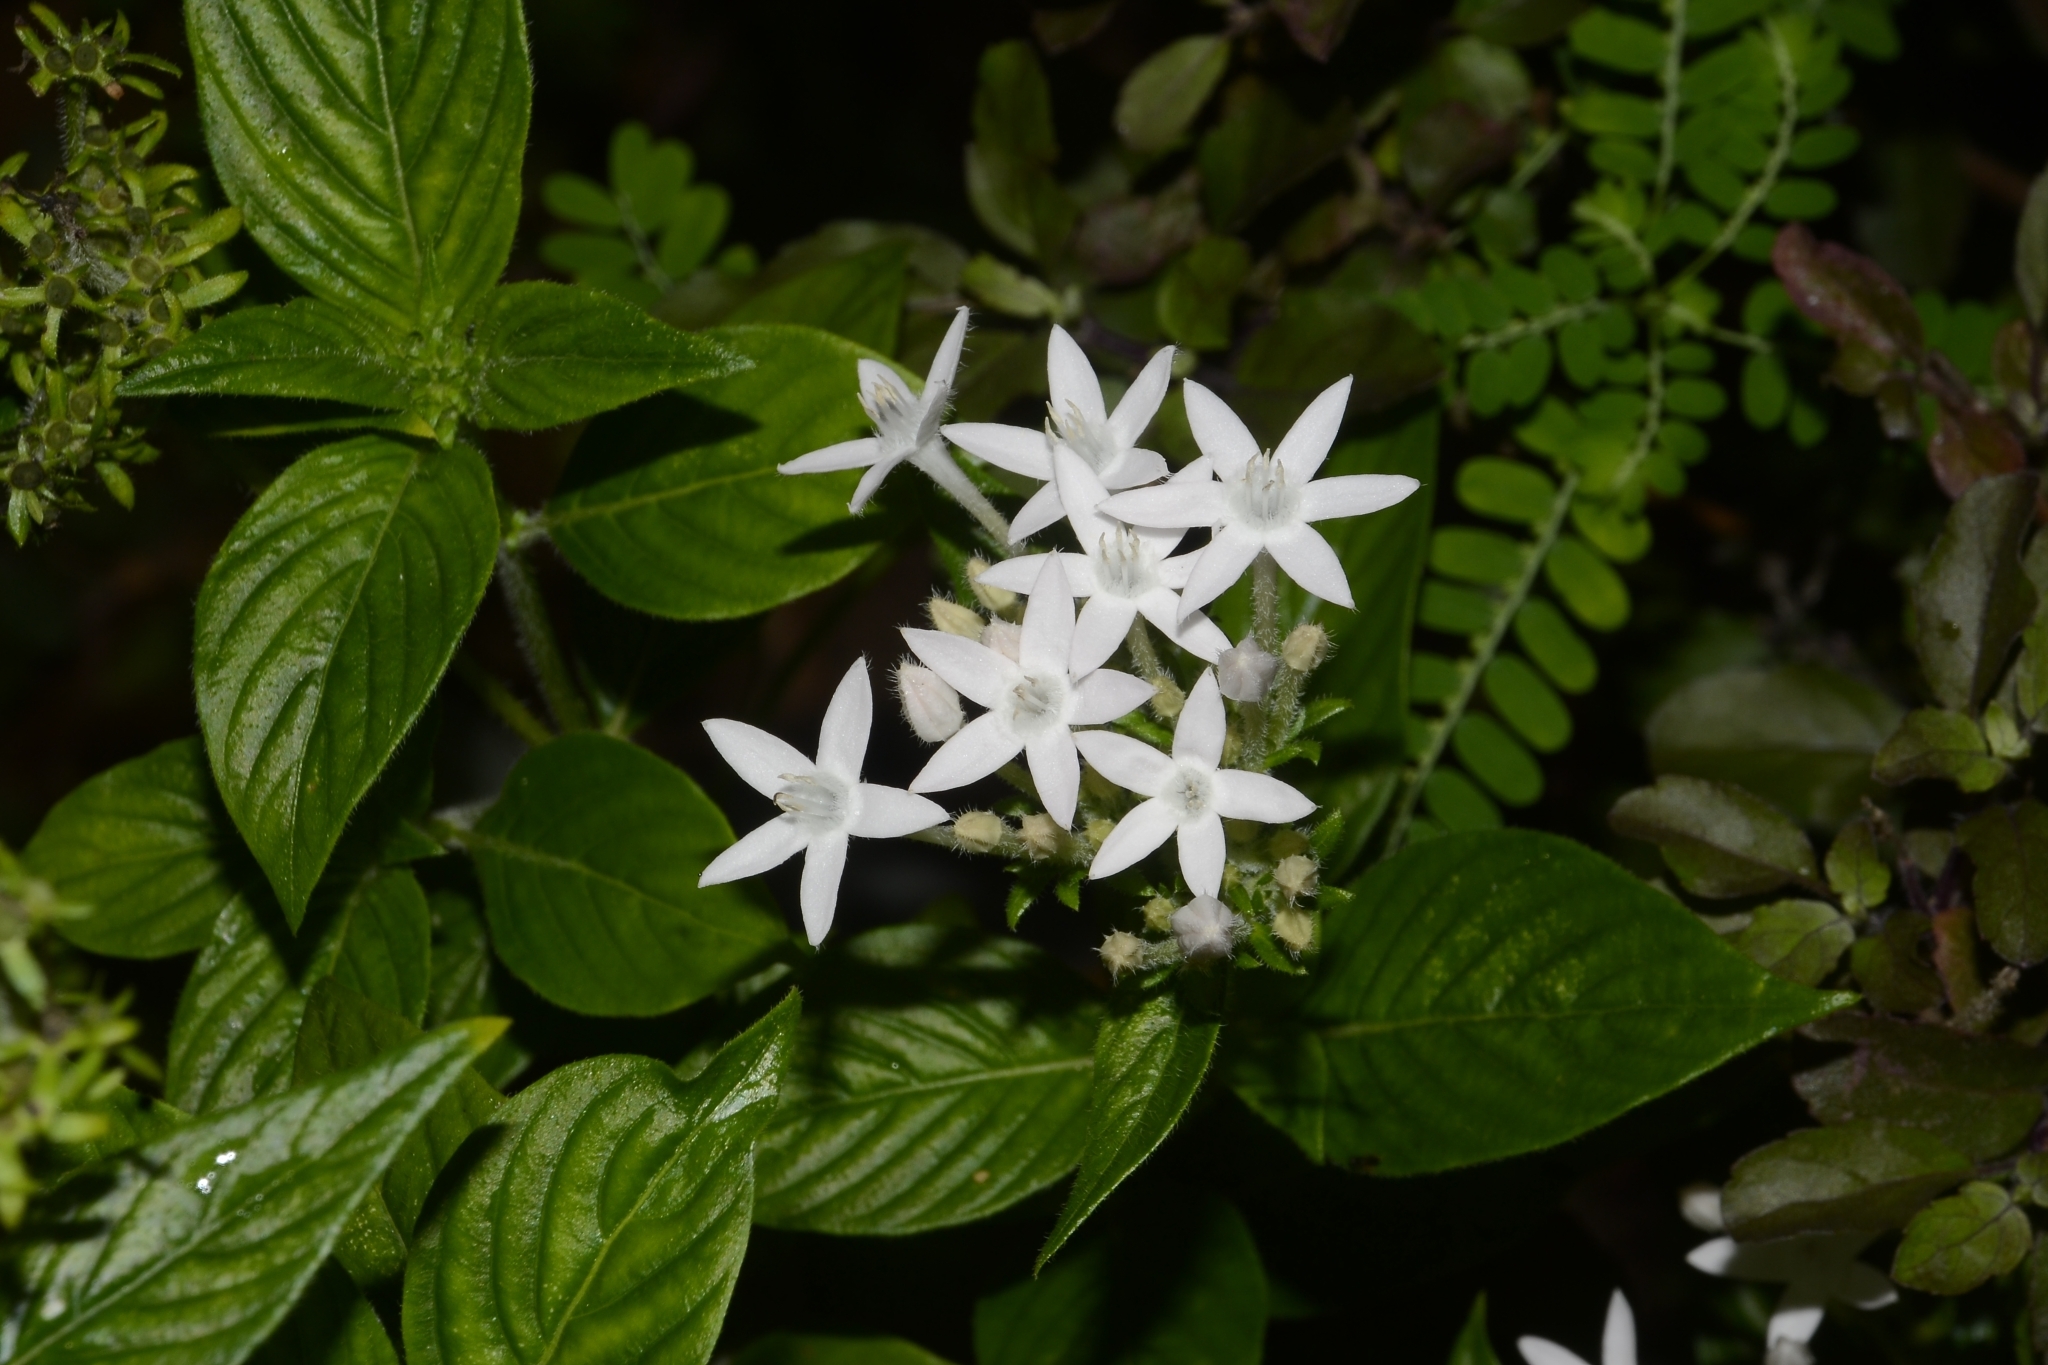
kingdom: Plantae
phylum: Tracheophyta
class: Magnoliopsida
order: Gentianales
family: Rubiaceae
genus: Pentas
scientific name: Pentas lanceolata
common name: Egyptian starcluster
